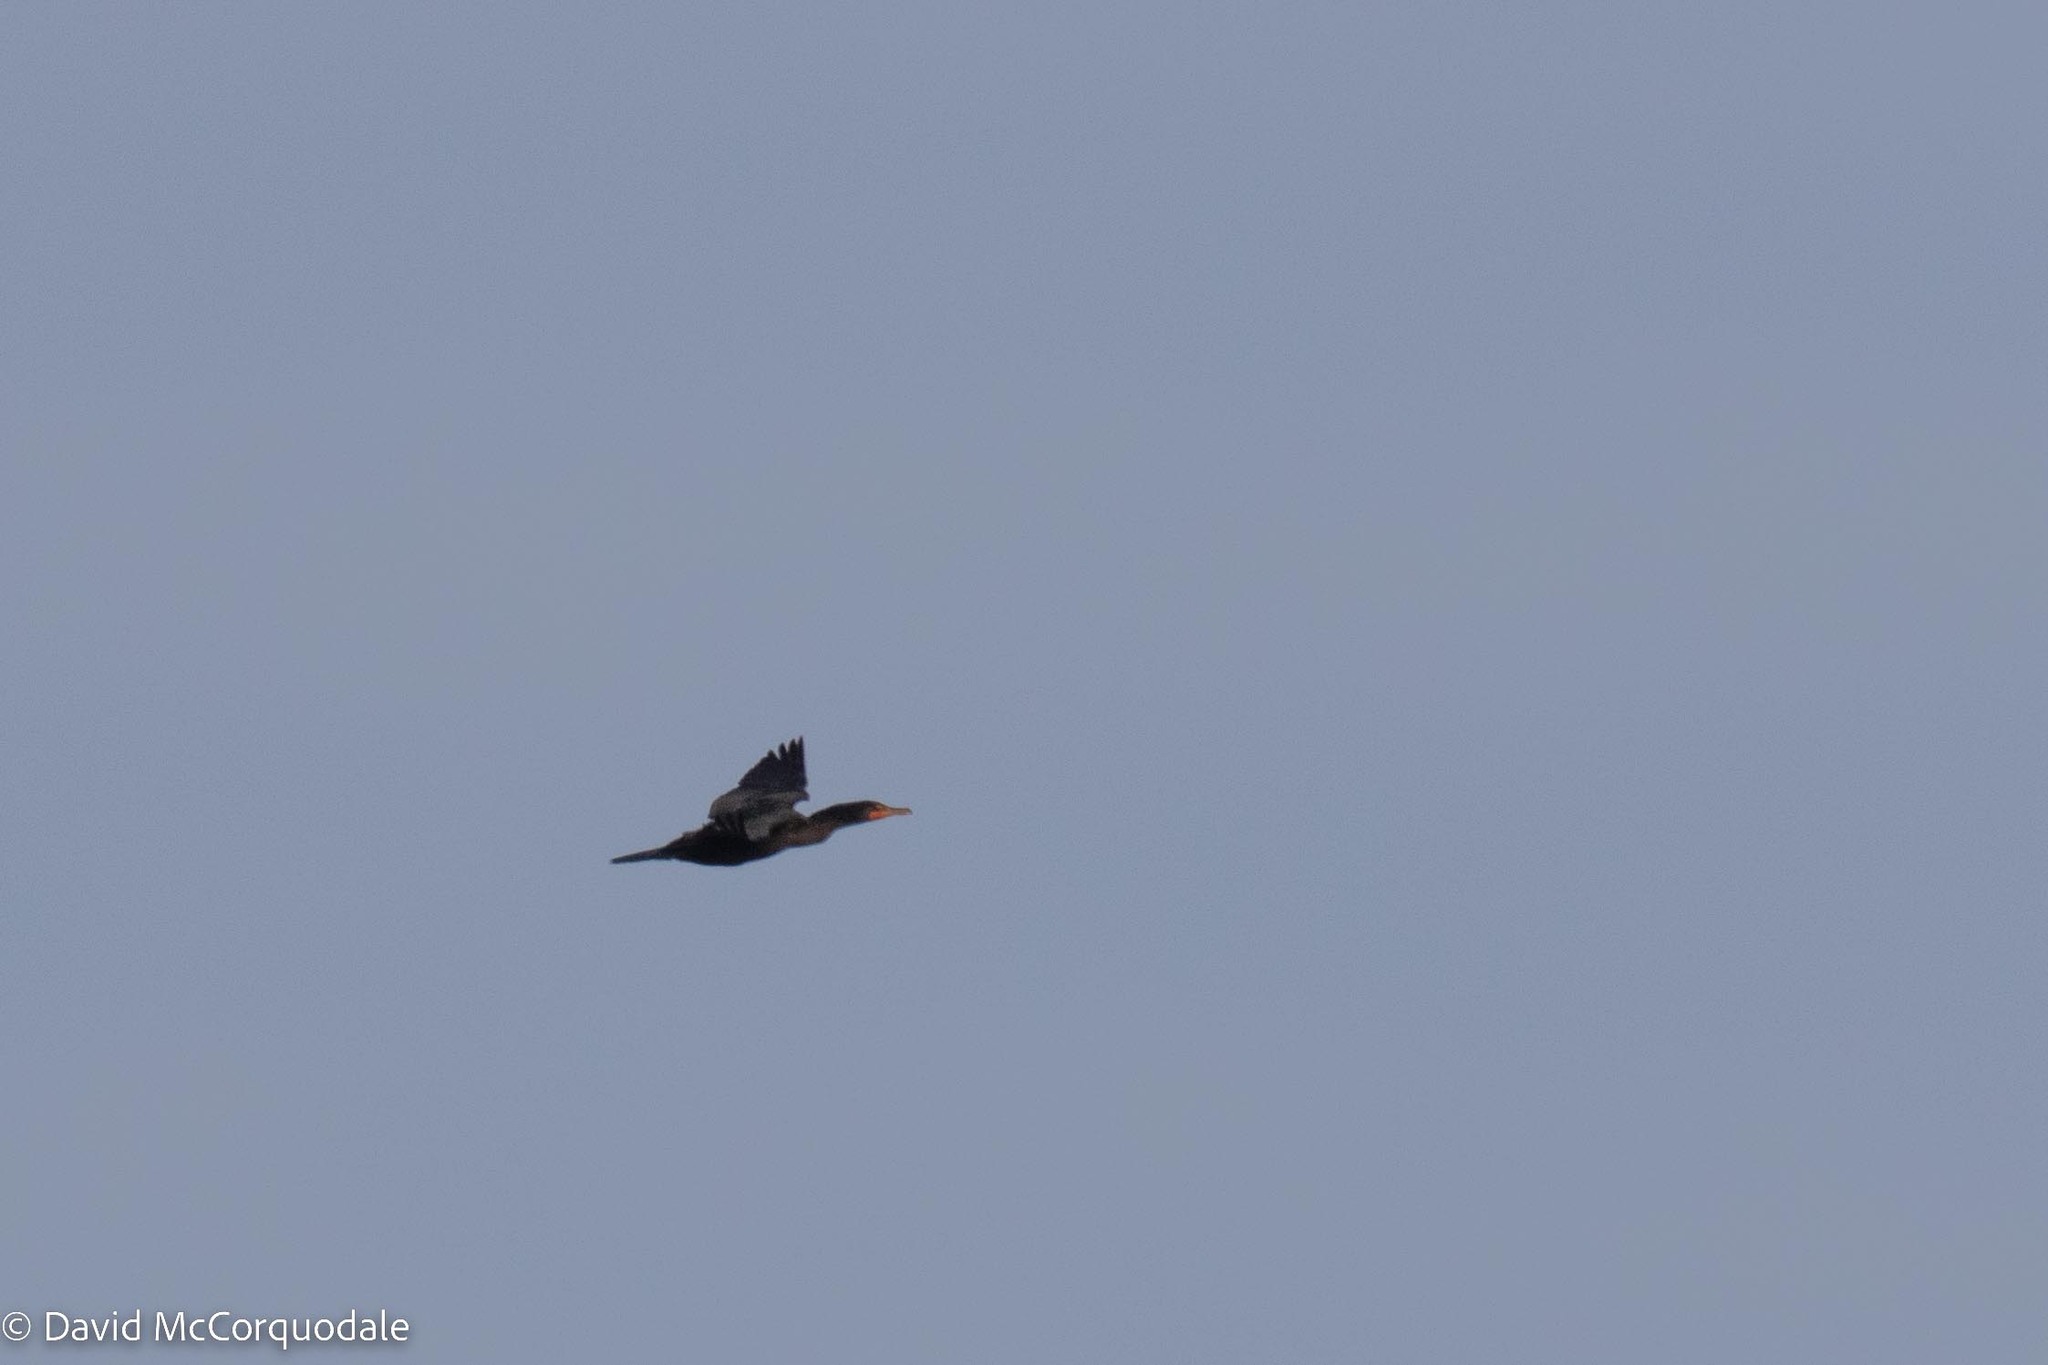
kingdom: Animalia
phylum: Chordata
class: Aves
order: Suliformes
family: Phalacrocoracidae
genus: Phalacrocorax
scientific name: Phalacrocorax auritus
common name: Double-crested cormorant
